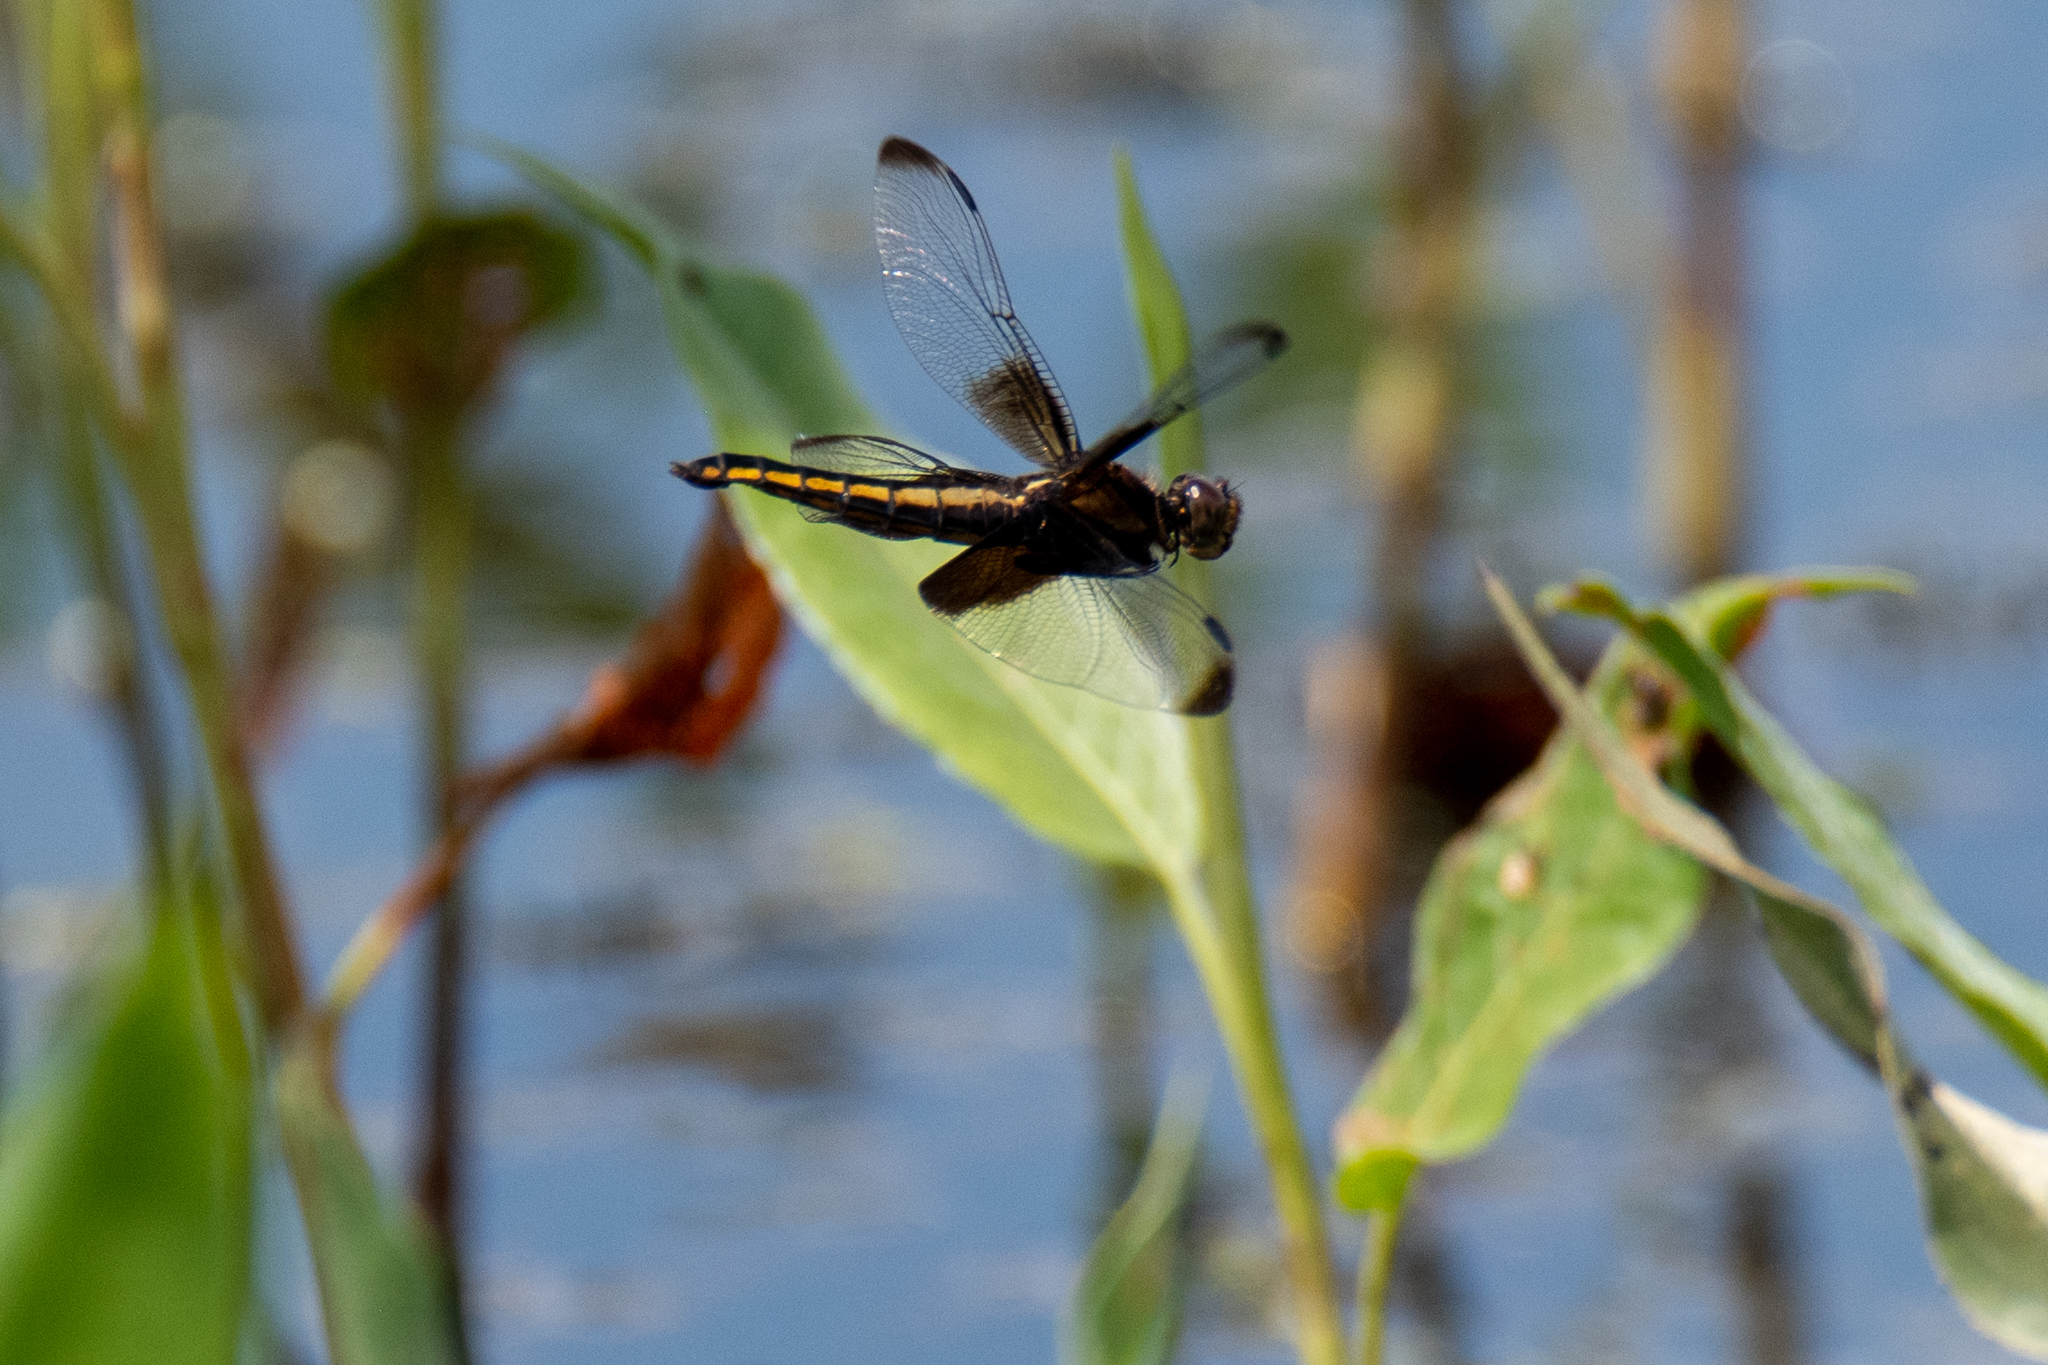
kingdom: Animalia
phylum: Arthropoda
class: Insecta
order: Odonata
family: Libellulidae
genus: Libellula
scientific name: Libellula luctuosa
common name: Widow skimmer
